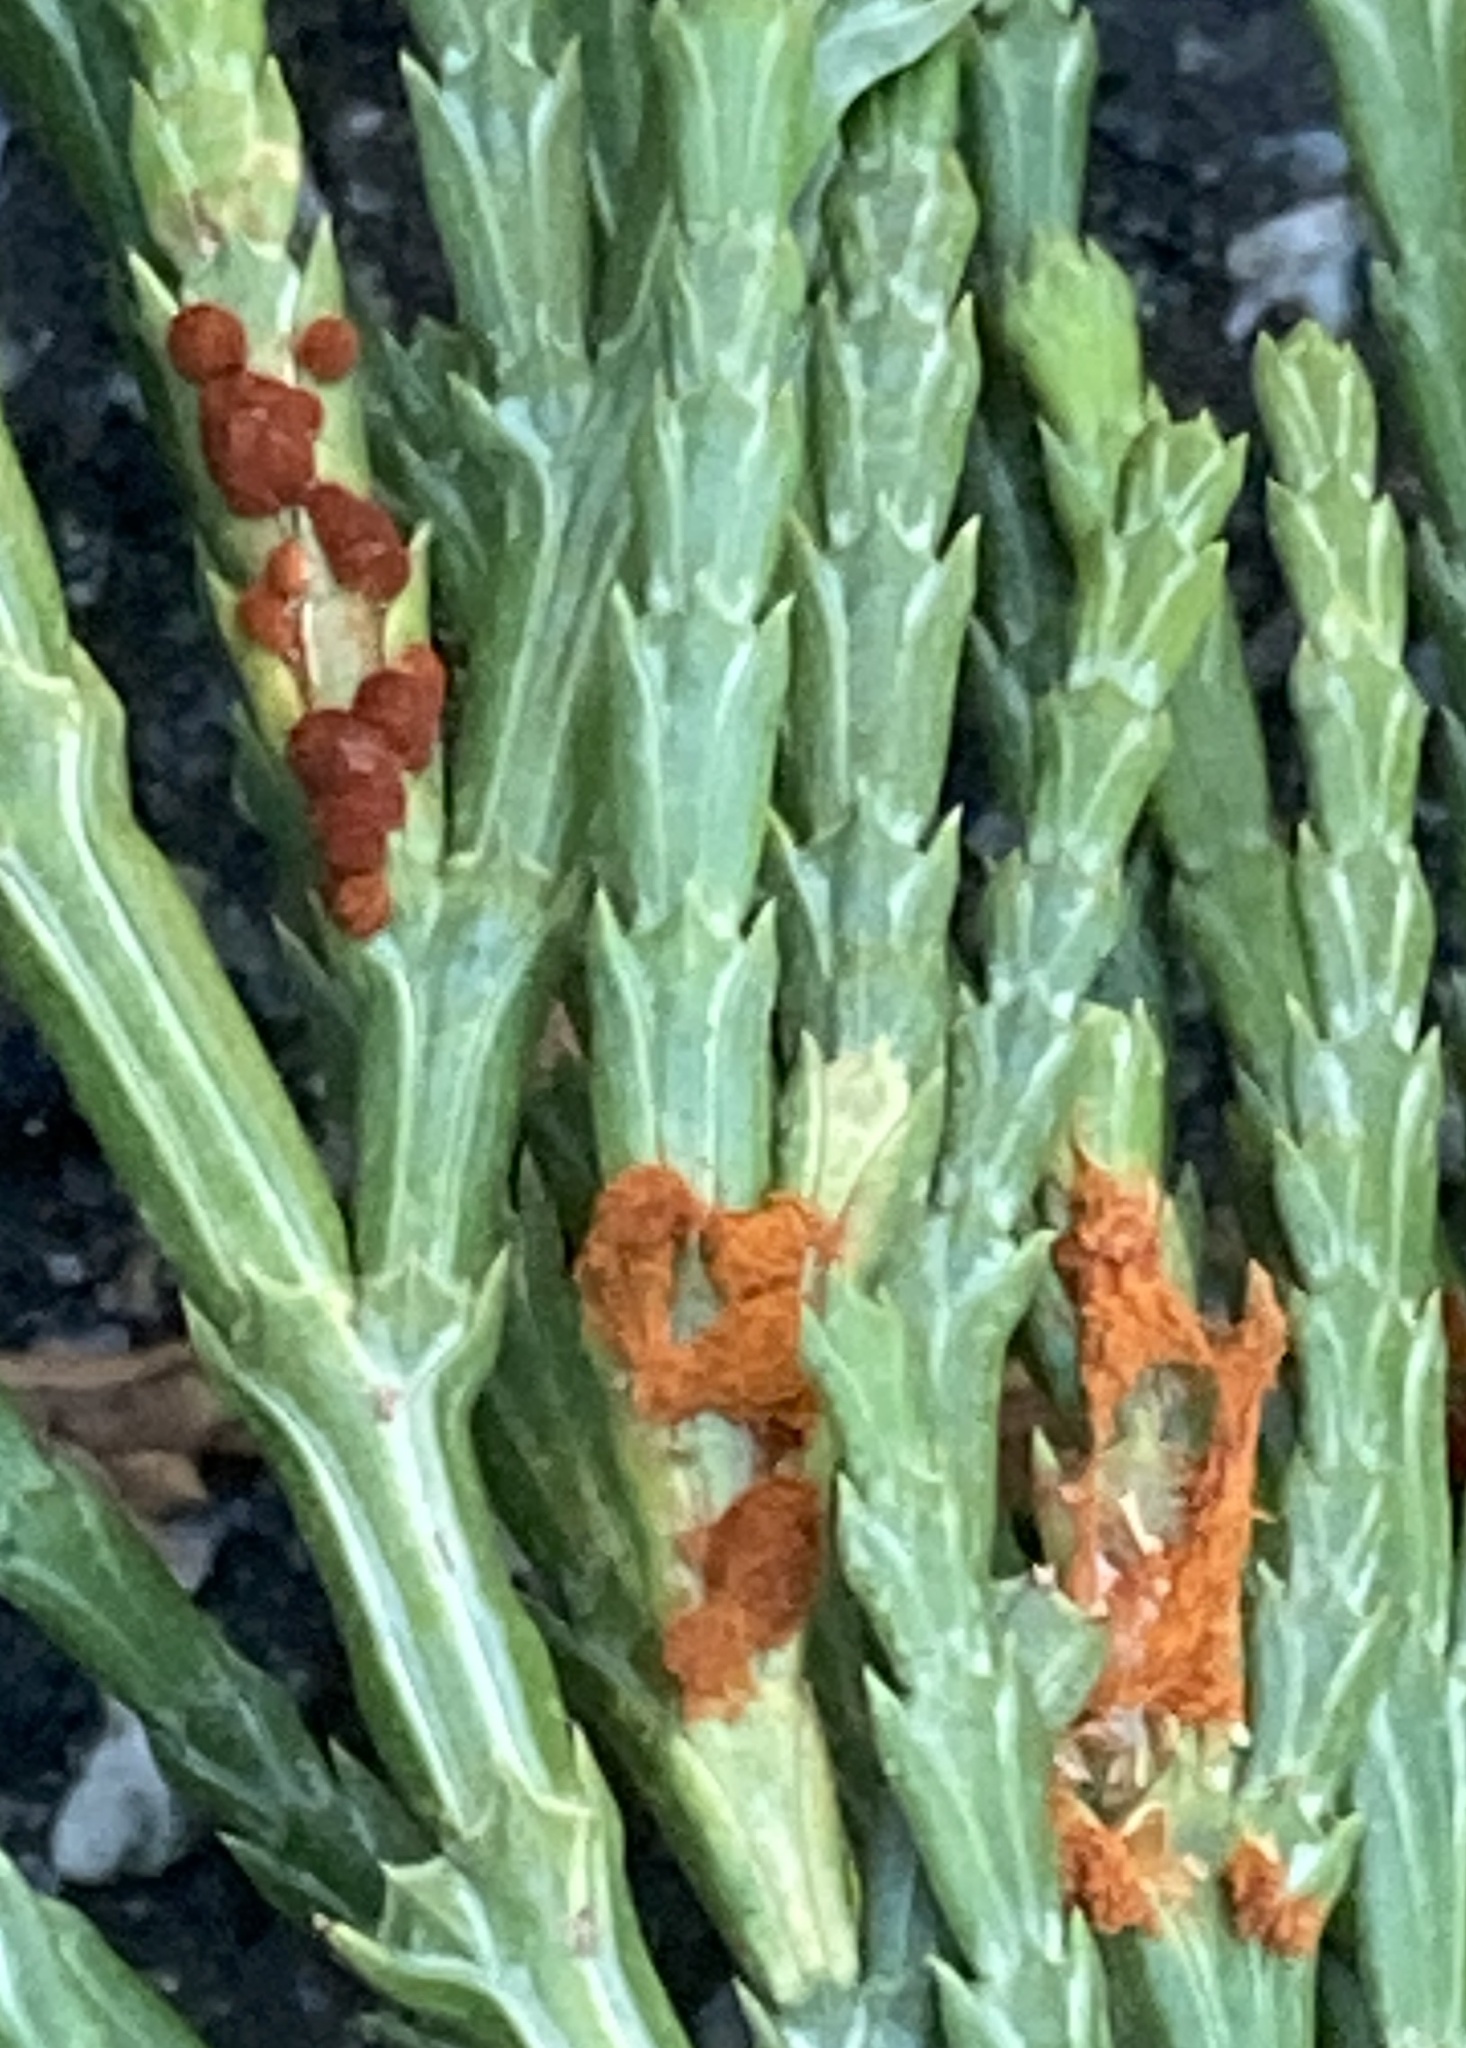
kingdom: Fungi
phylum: Basidiomycota
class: Pucciniomycetes
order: Pucciniales
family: Pucciniaceae
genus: Gymnotelium
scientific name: Gymnotelium blasdaleanum
